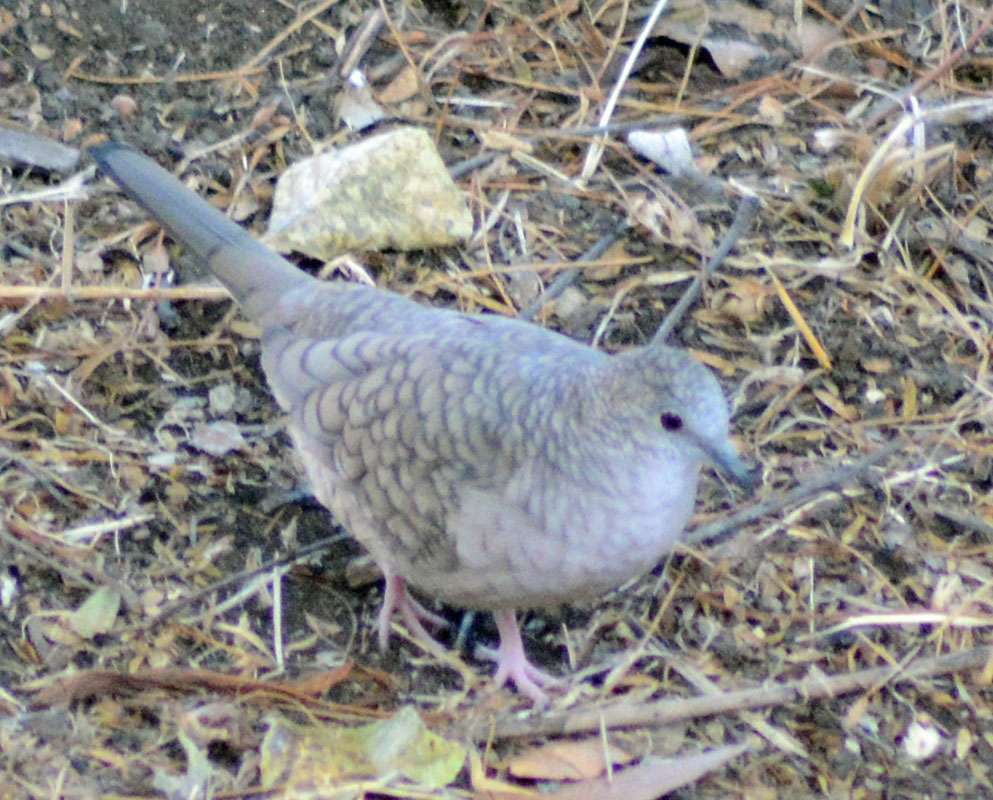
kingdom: Animalia
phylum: Chordata
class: Aves
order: Columbiformes
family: Columbidae
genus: Columbina
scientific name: Columbina inca
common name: Inca dove
